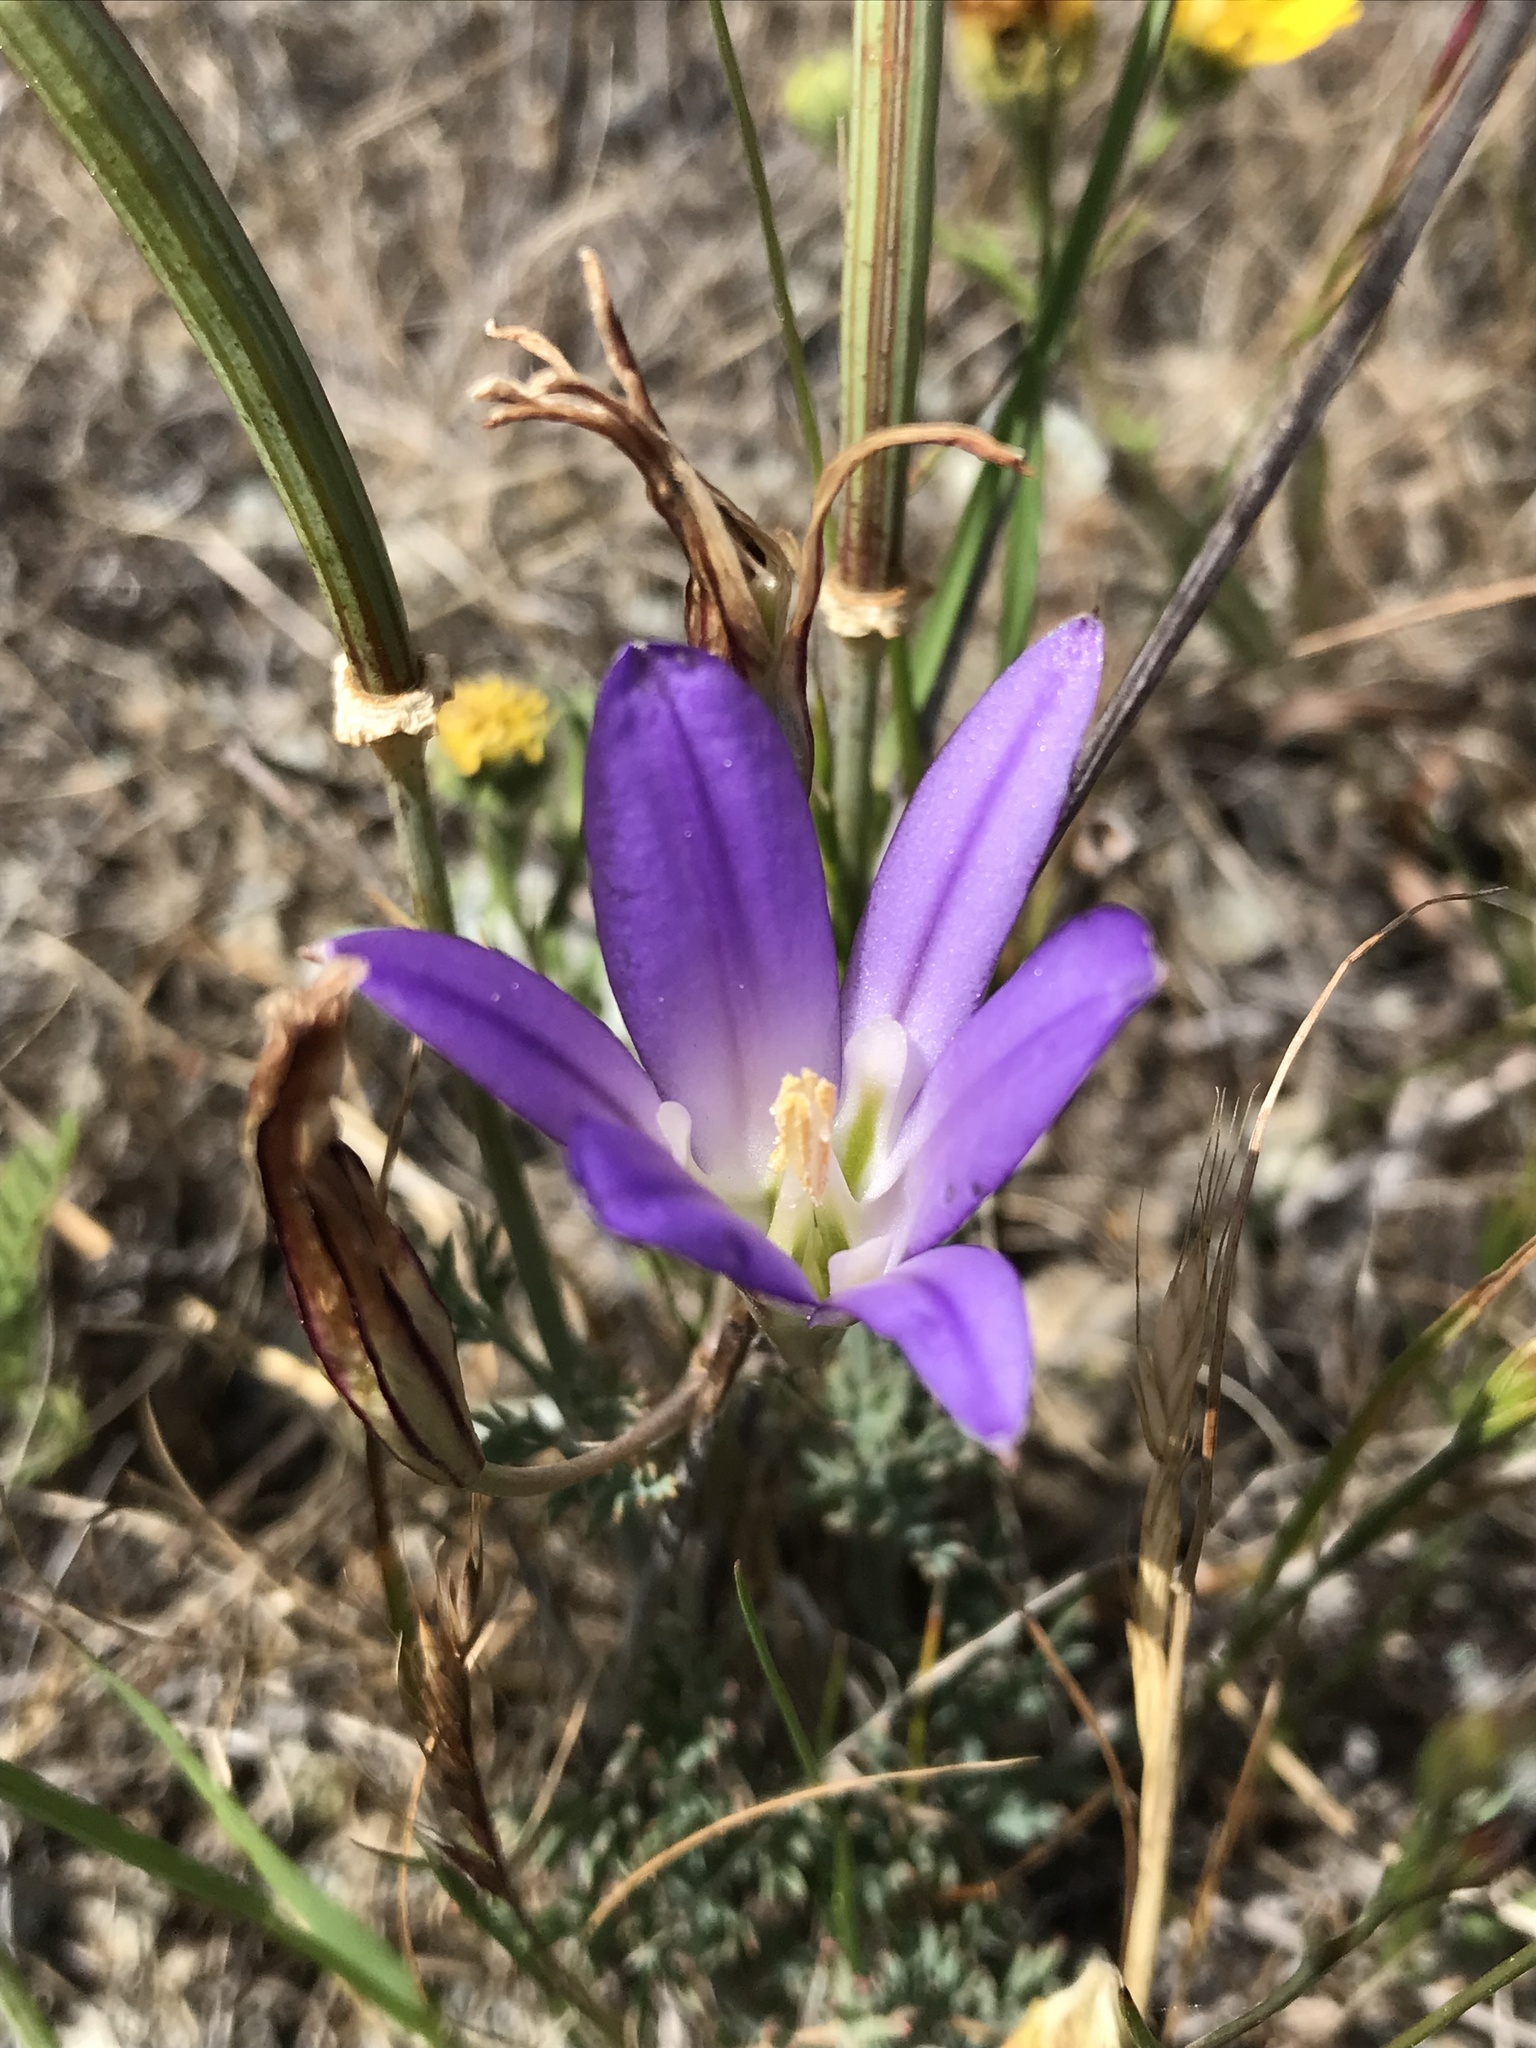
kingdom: Plantae
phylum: Tracheophyta
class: Liliopsida
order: Asparagales
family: Asparagaceae
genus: Brodiaea
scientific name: Brodiaea elegans
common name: Elegant cluster-lily
